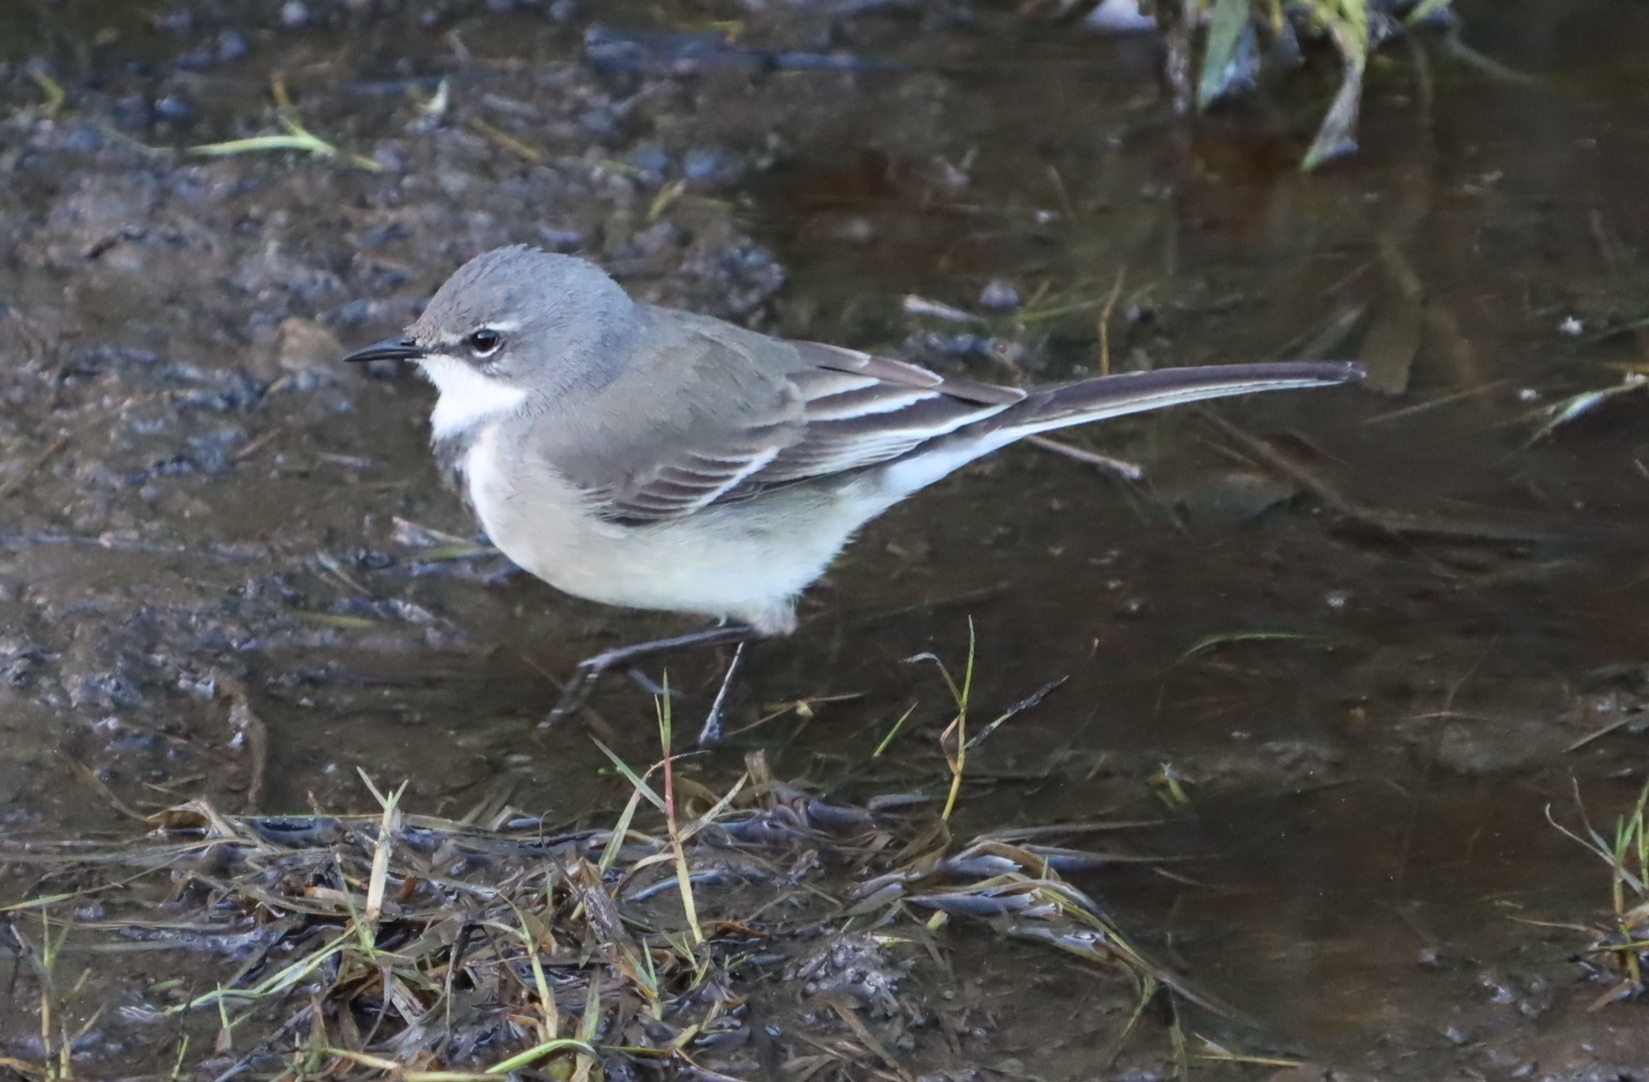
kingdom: Animalia
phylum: Chordata
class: Aves
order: Passeriformes
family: Motacillidae
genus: Motacilla
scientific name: Motacilla capensis
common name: Cape wagtail
